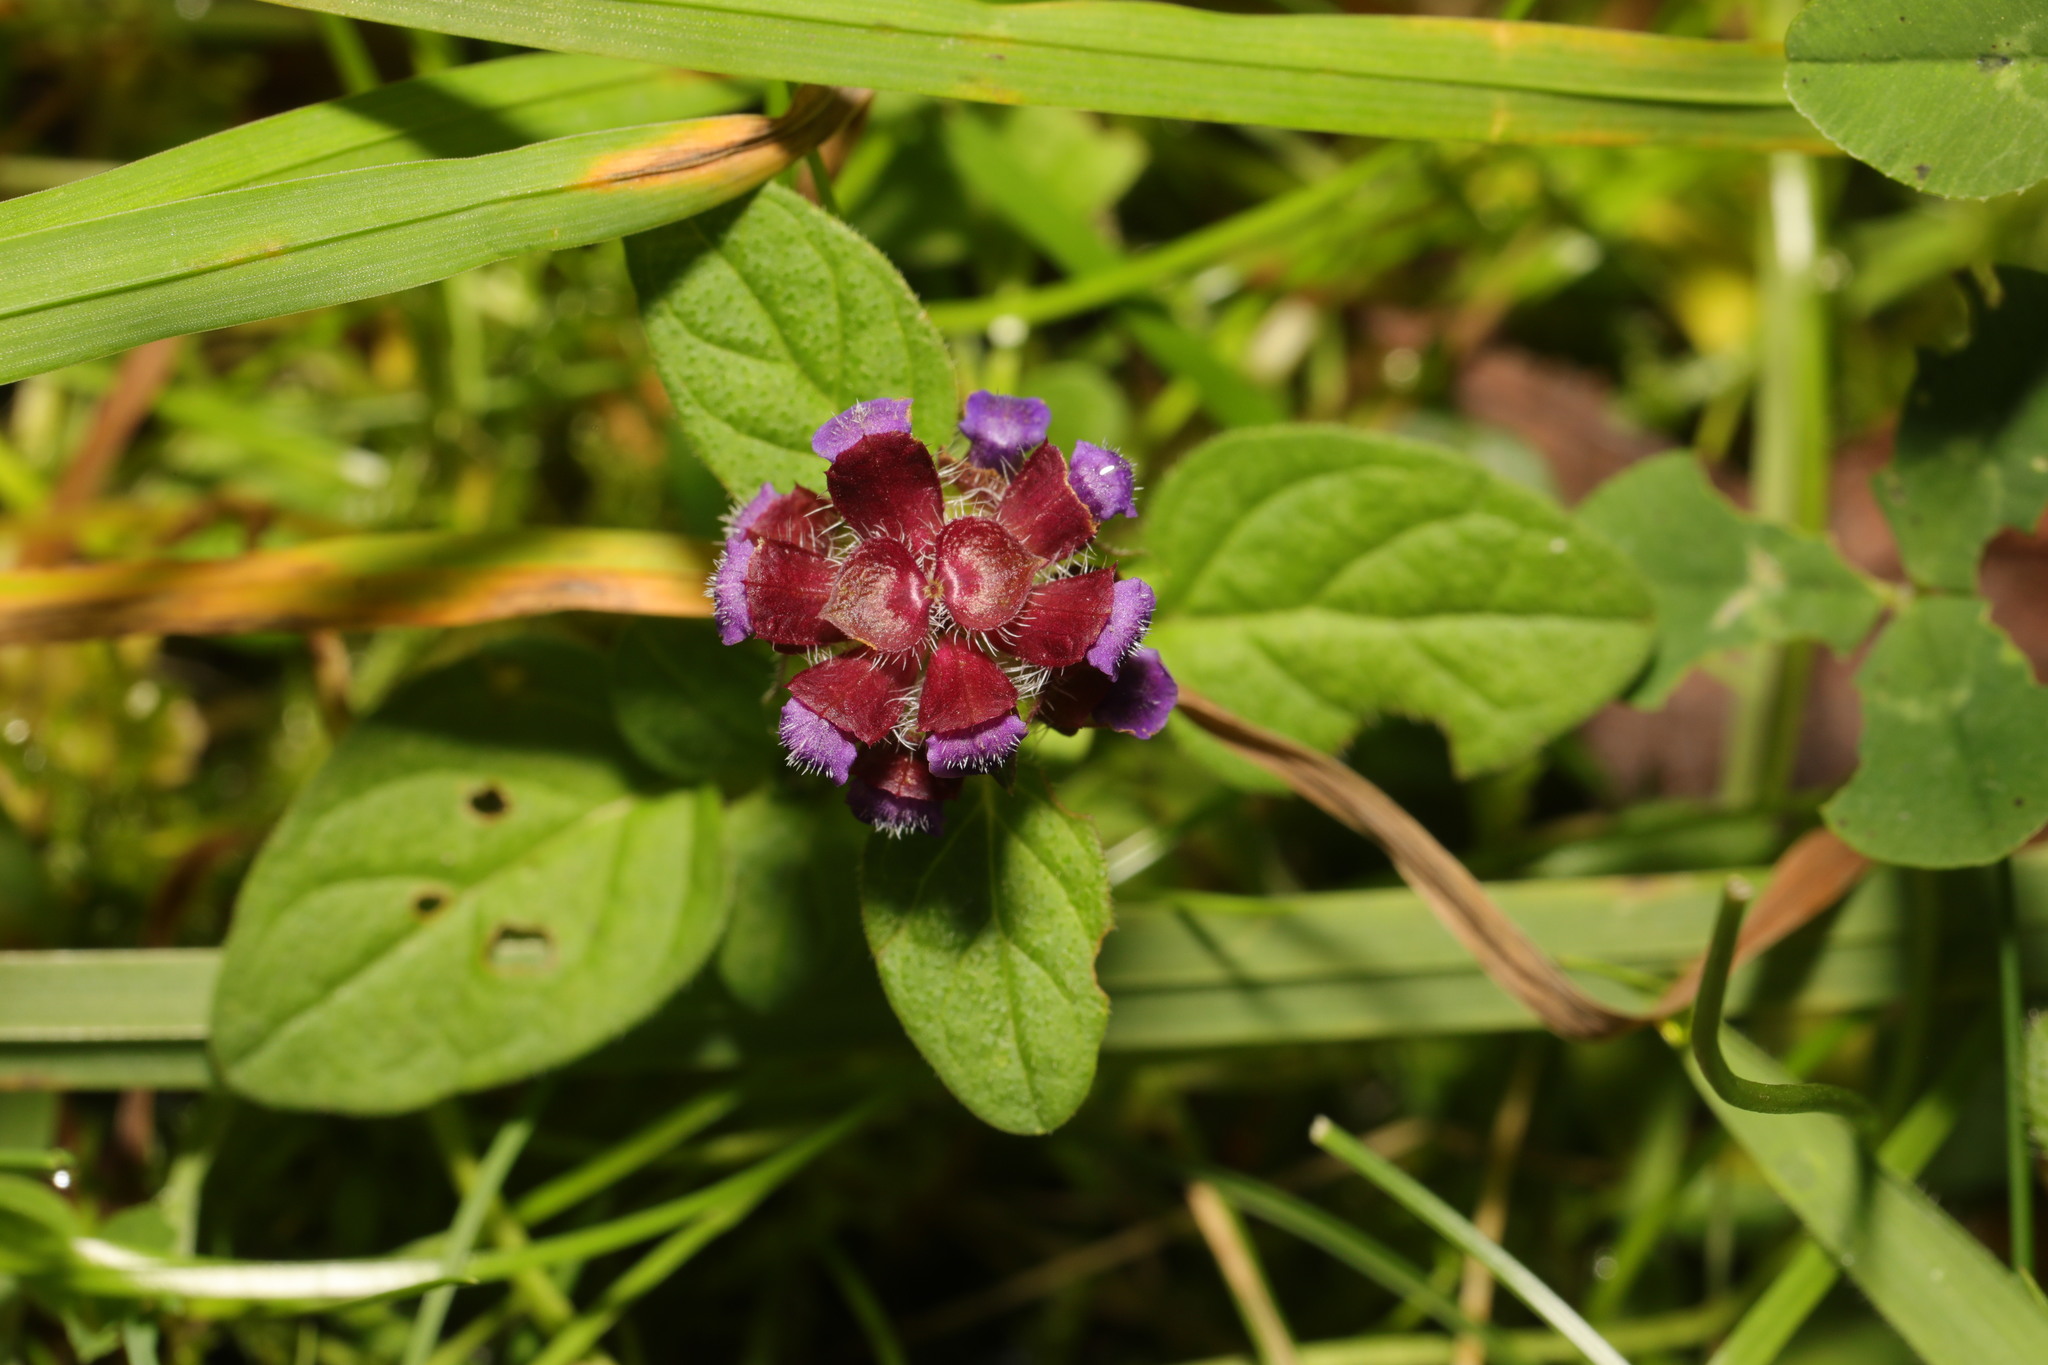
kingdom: Plantae
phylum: Tracheophyta
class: Magnoliopsida
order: Lamiales
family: Lamiaceae
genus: Prunella
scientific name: Prunella vulgaris
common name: Heal-all
